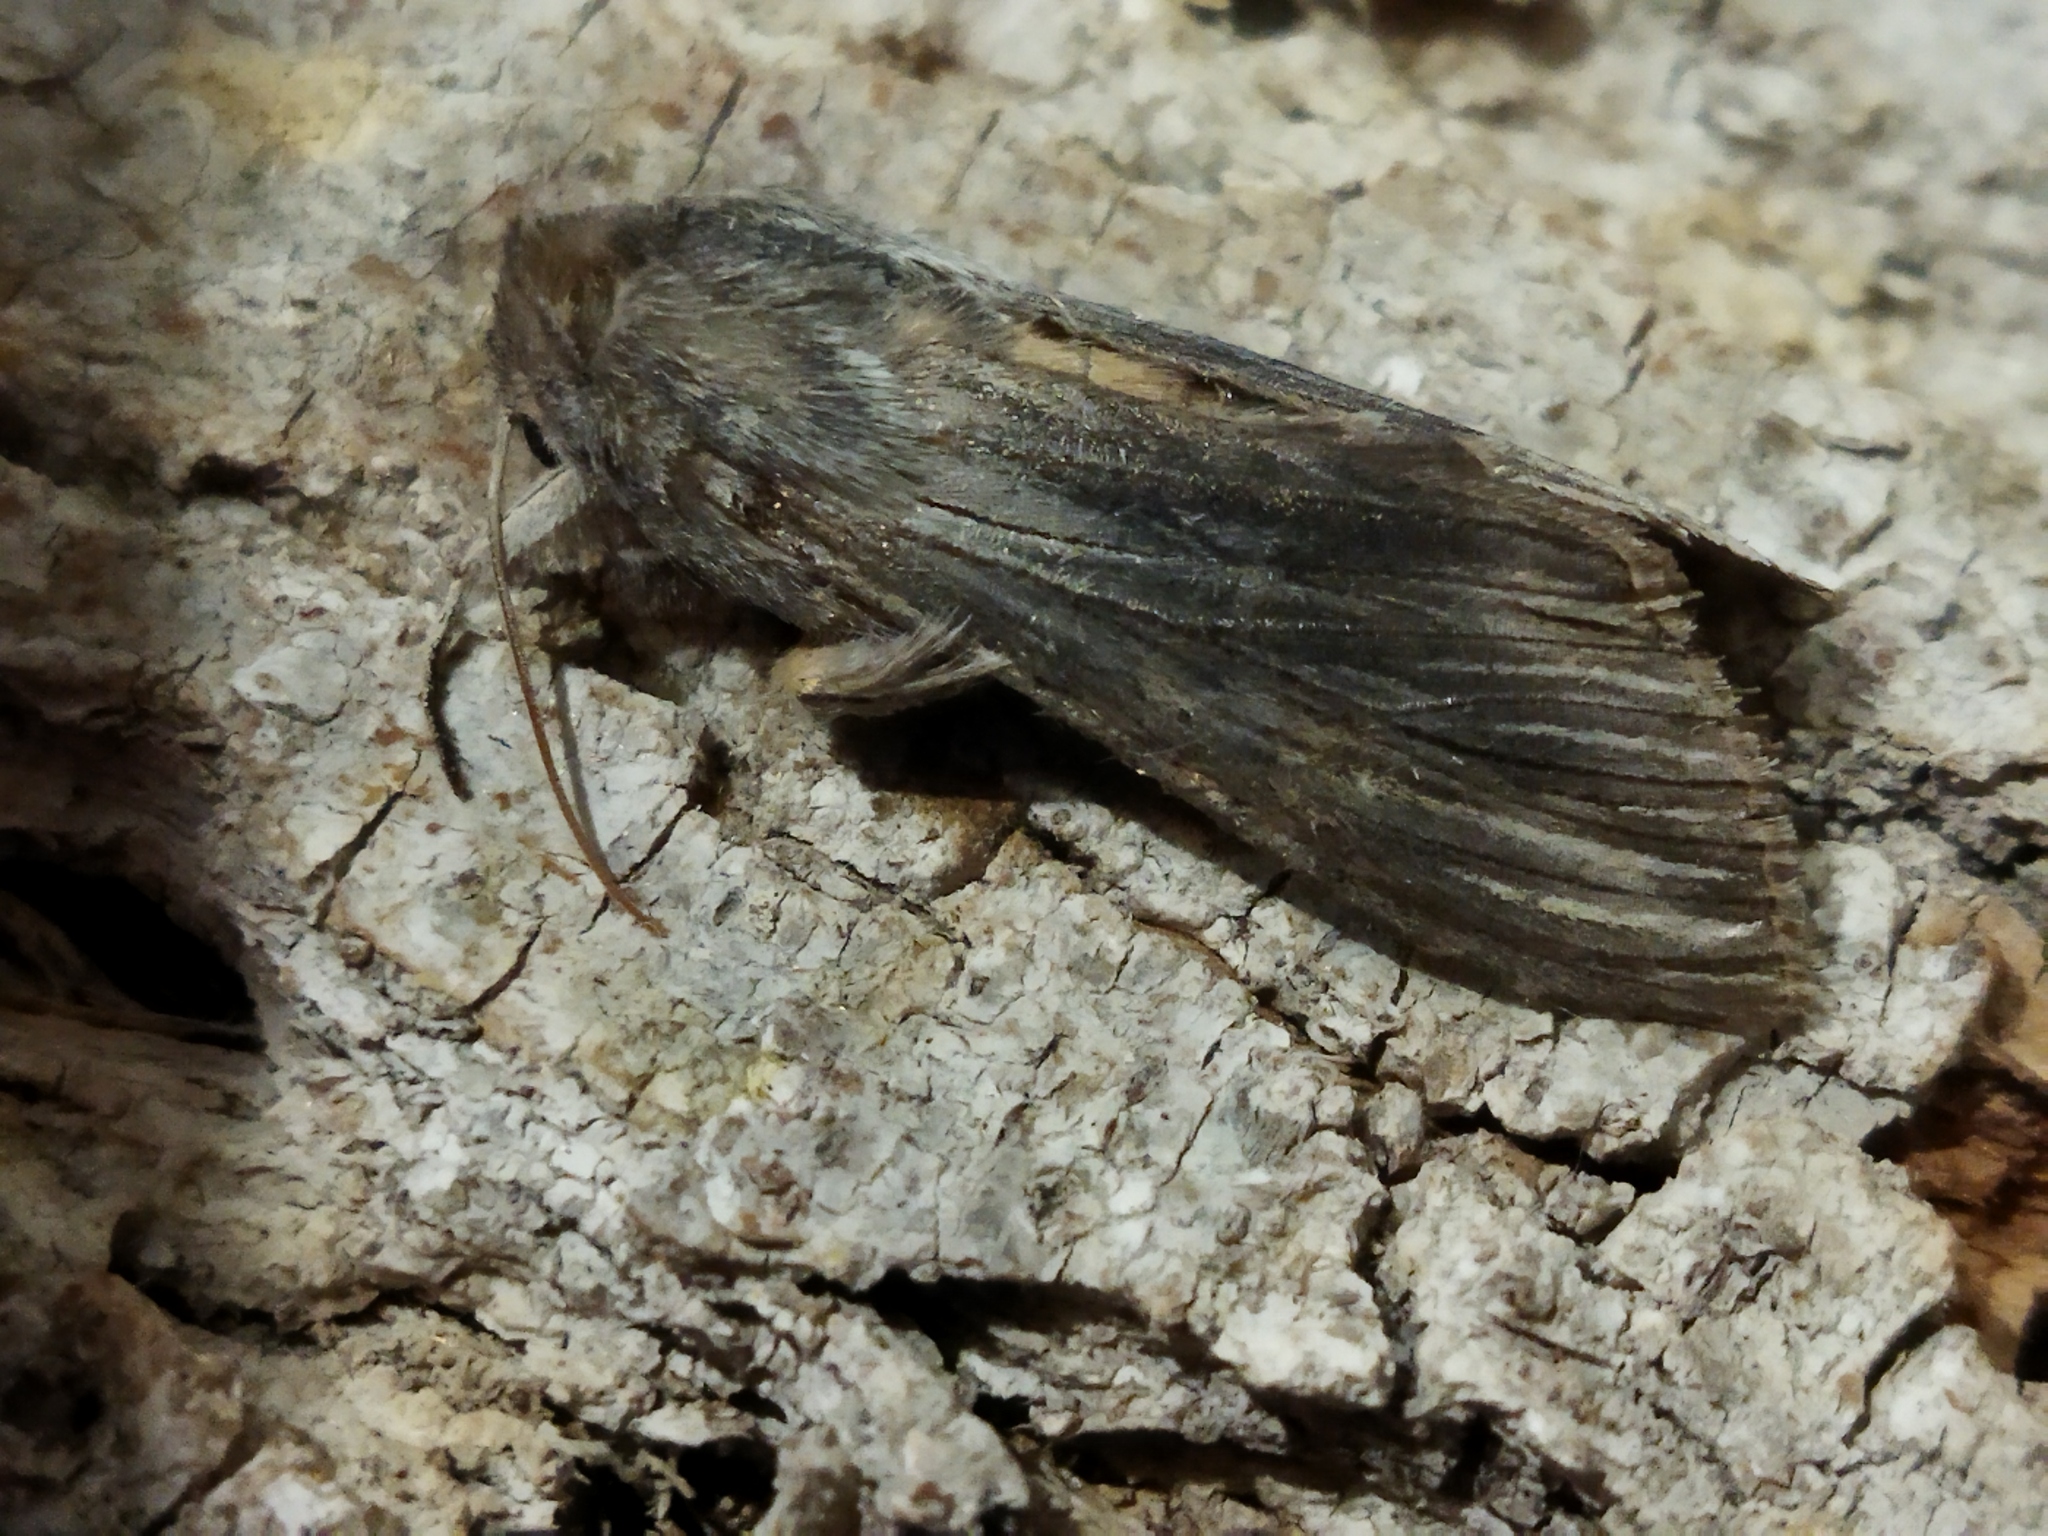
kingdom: Animalia
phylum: Arthropoda
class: Insecta
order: Lepidoptera
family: Noctuidae
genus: Cucullia
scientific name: Cucullia chamomillae
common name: Chamomile shark
